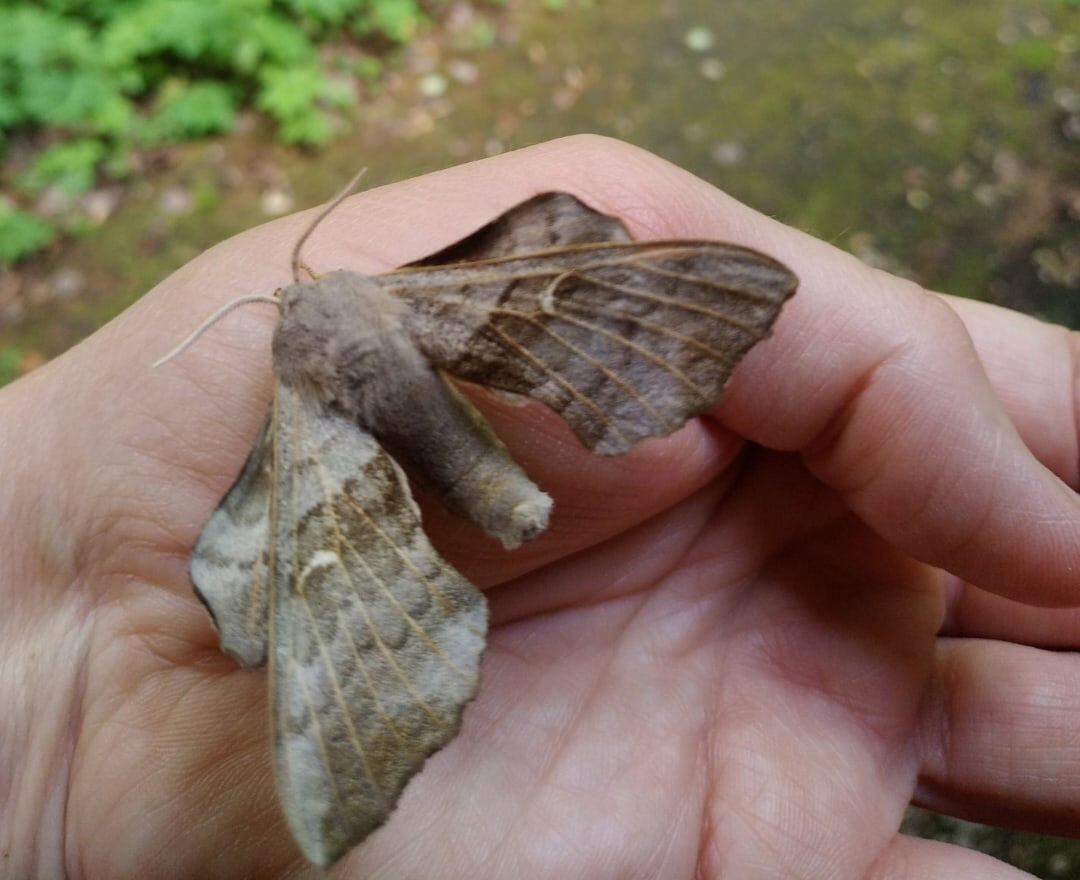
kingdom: Animalia
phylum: Arthropoda
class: Insecta
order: Lepidoptera
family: Sphingidae
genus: Laothoe
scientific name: Laothoe populi
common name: Poplar hawk-moth
